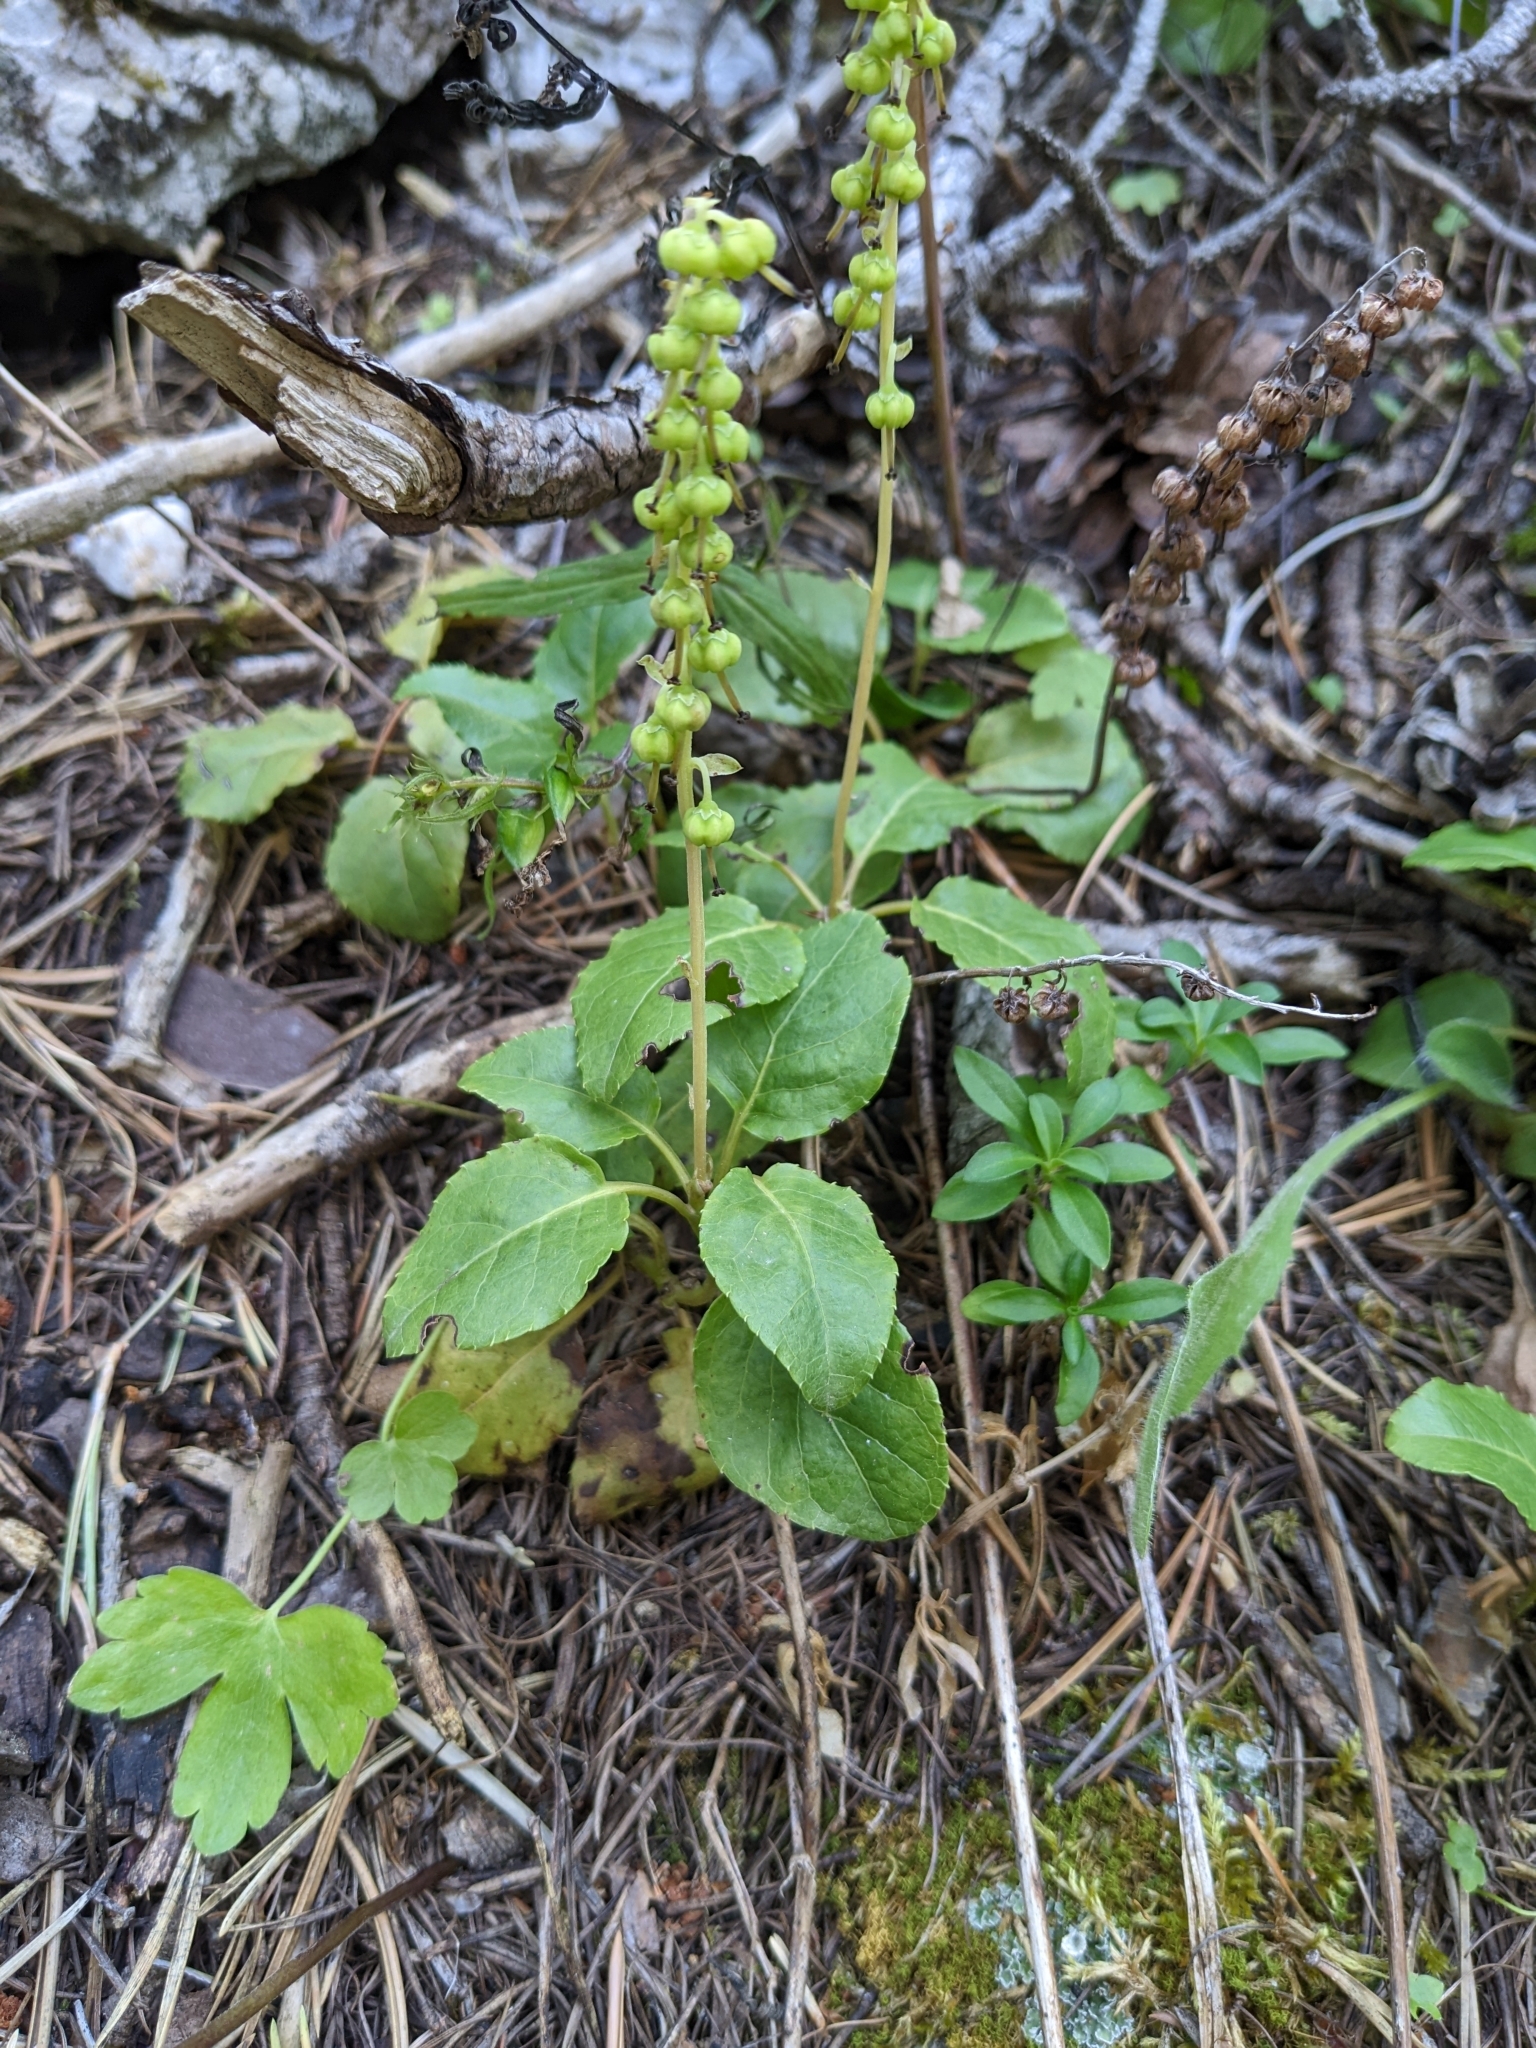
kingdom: Plantae
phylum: Tracheophyta
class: Magnoliopsida
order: Ericales
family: Ericaceae
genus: Orthilia
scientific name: Orthilia secunda
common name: One-sided orthilia
